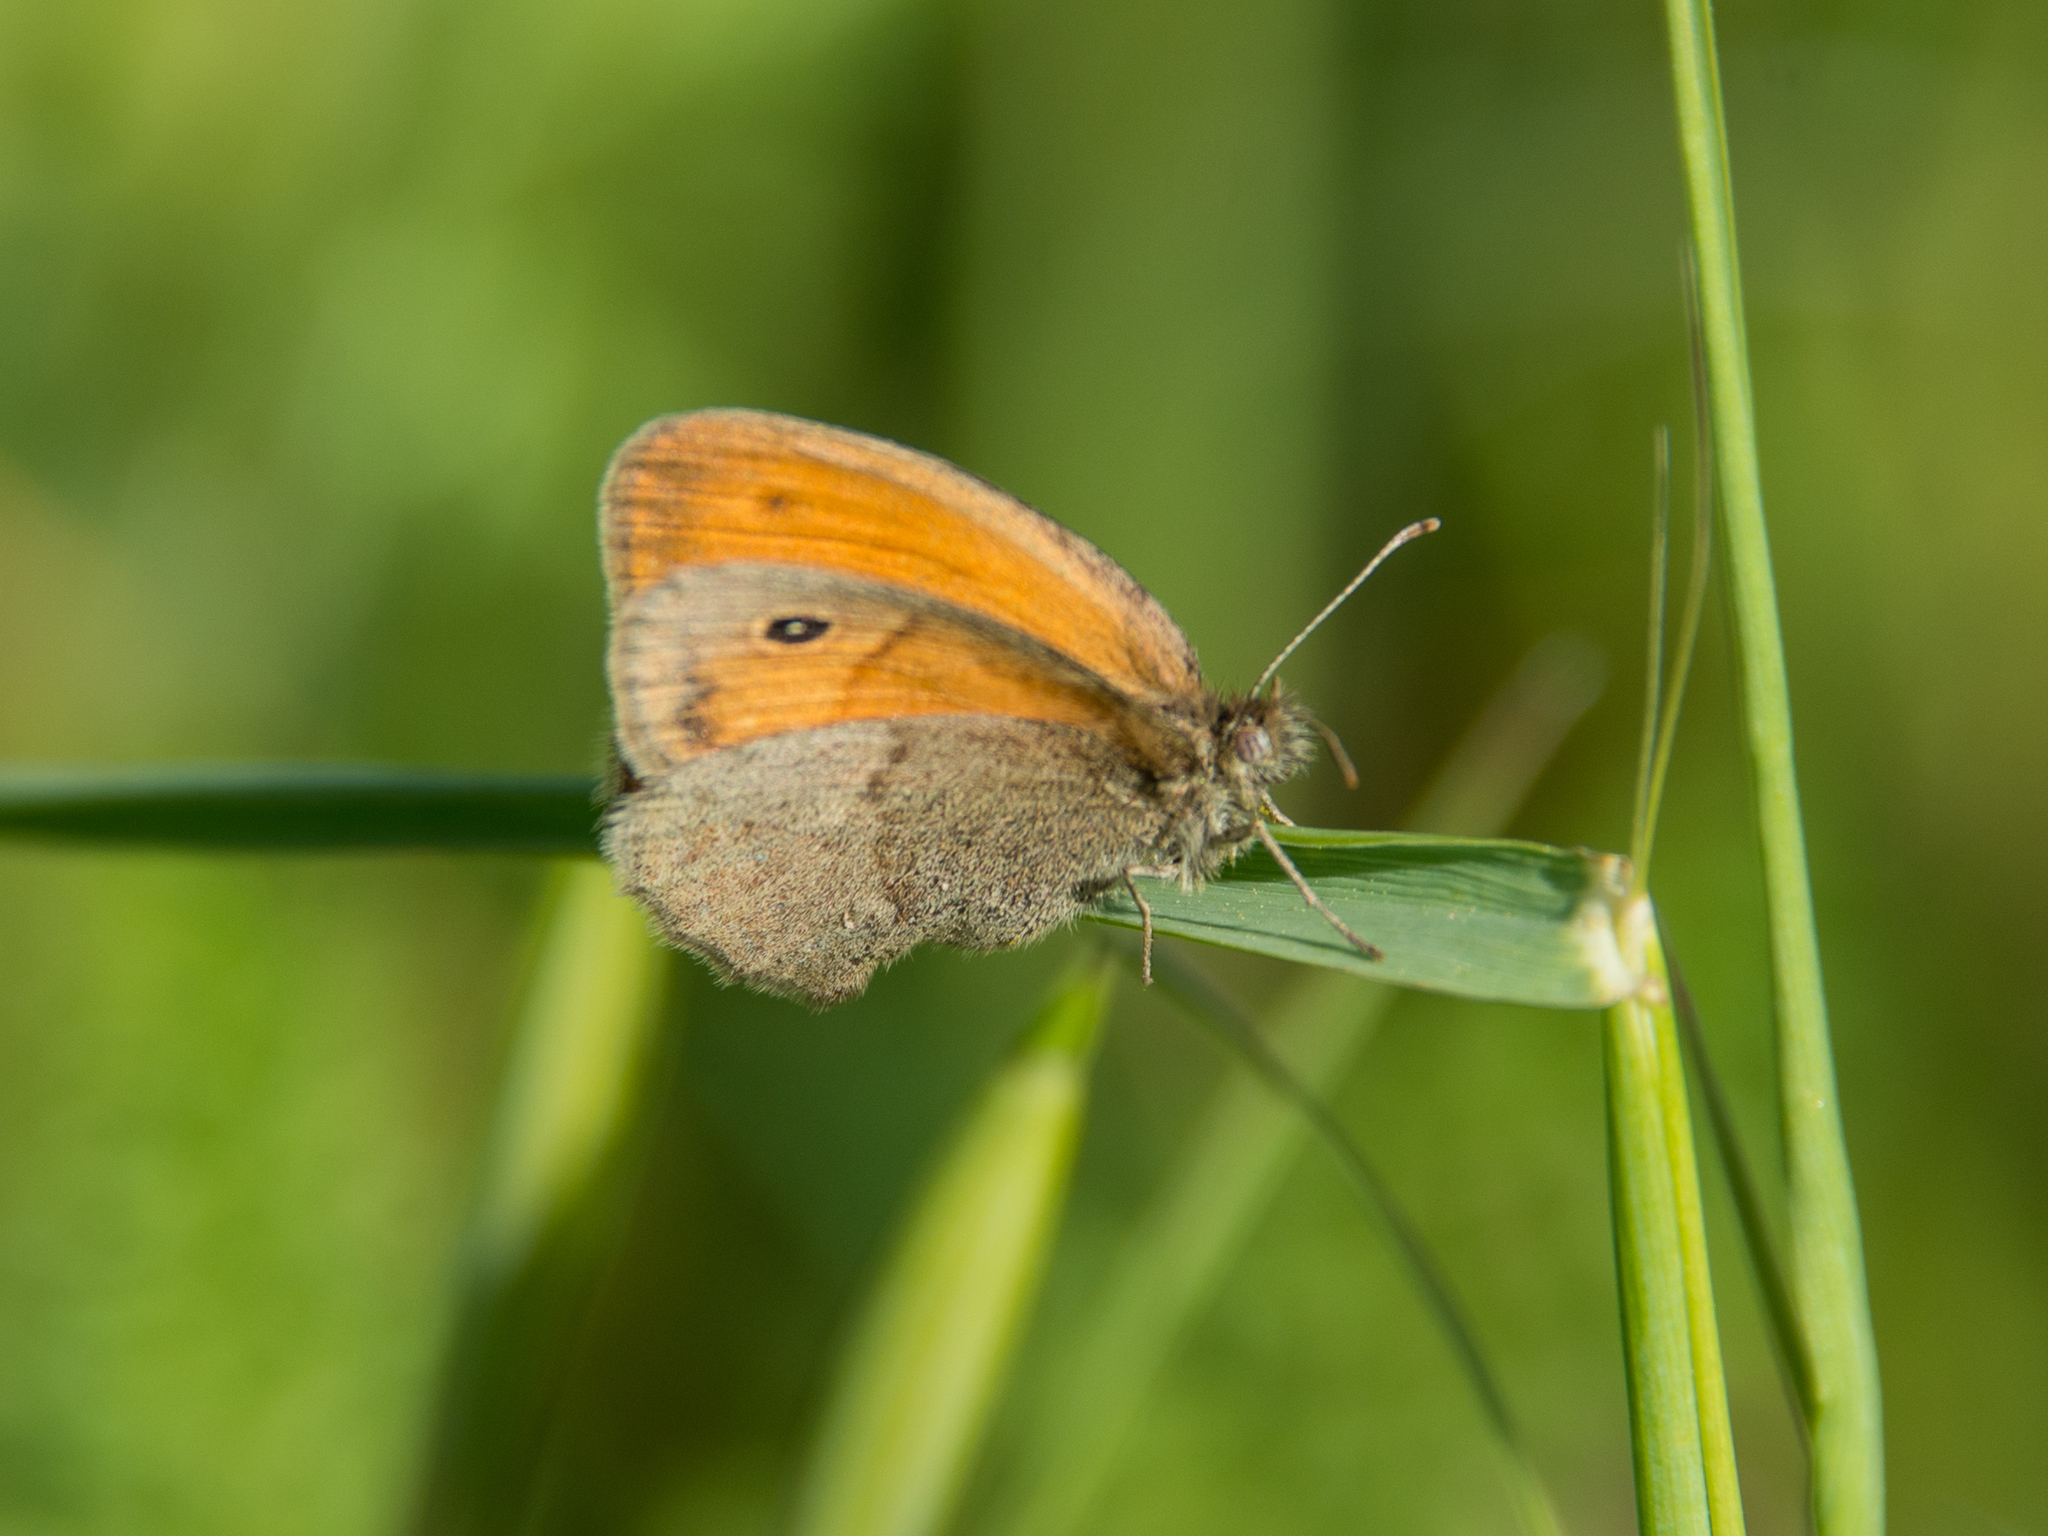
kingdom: Animalia
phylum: Arthropoda
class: Insecta
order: Lepidoptera
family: Nymphalidae
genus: Coenonympha
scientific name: Coenonympha pamphilus
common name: Small heath
